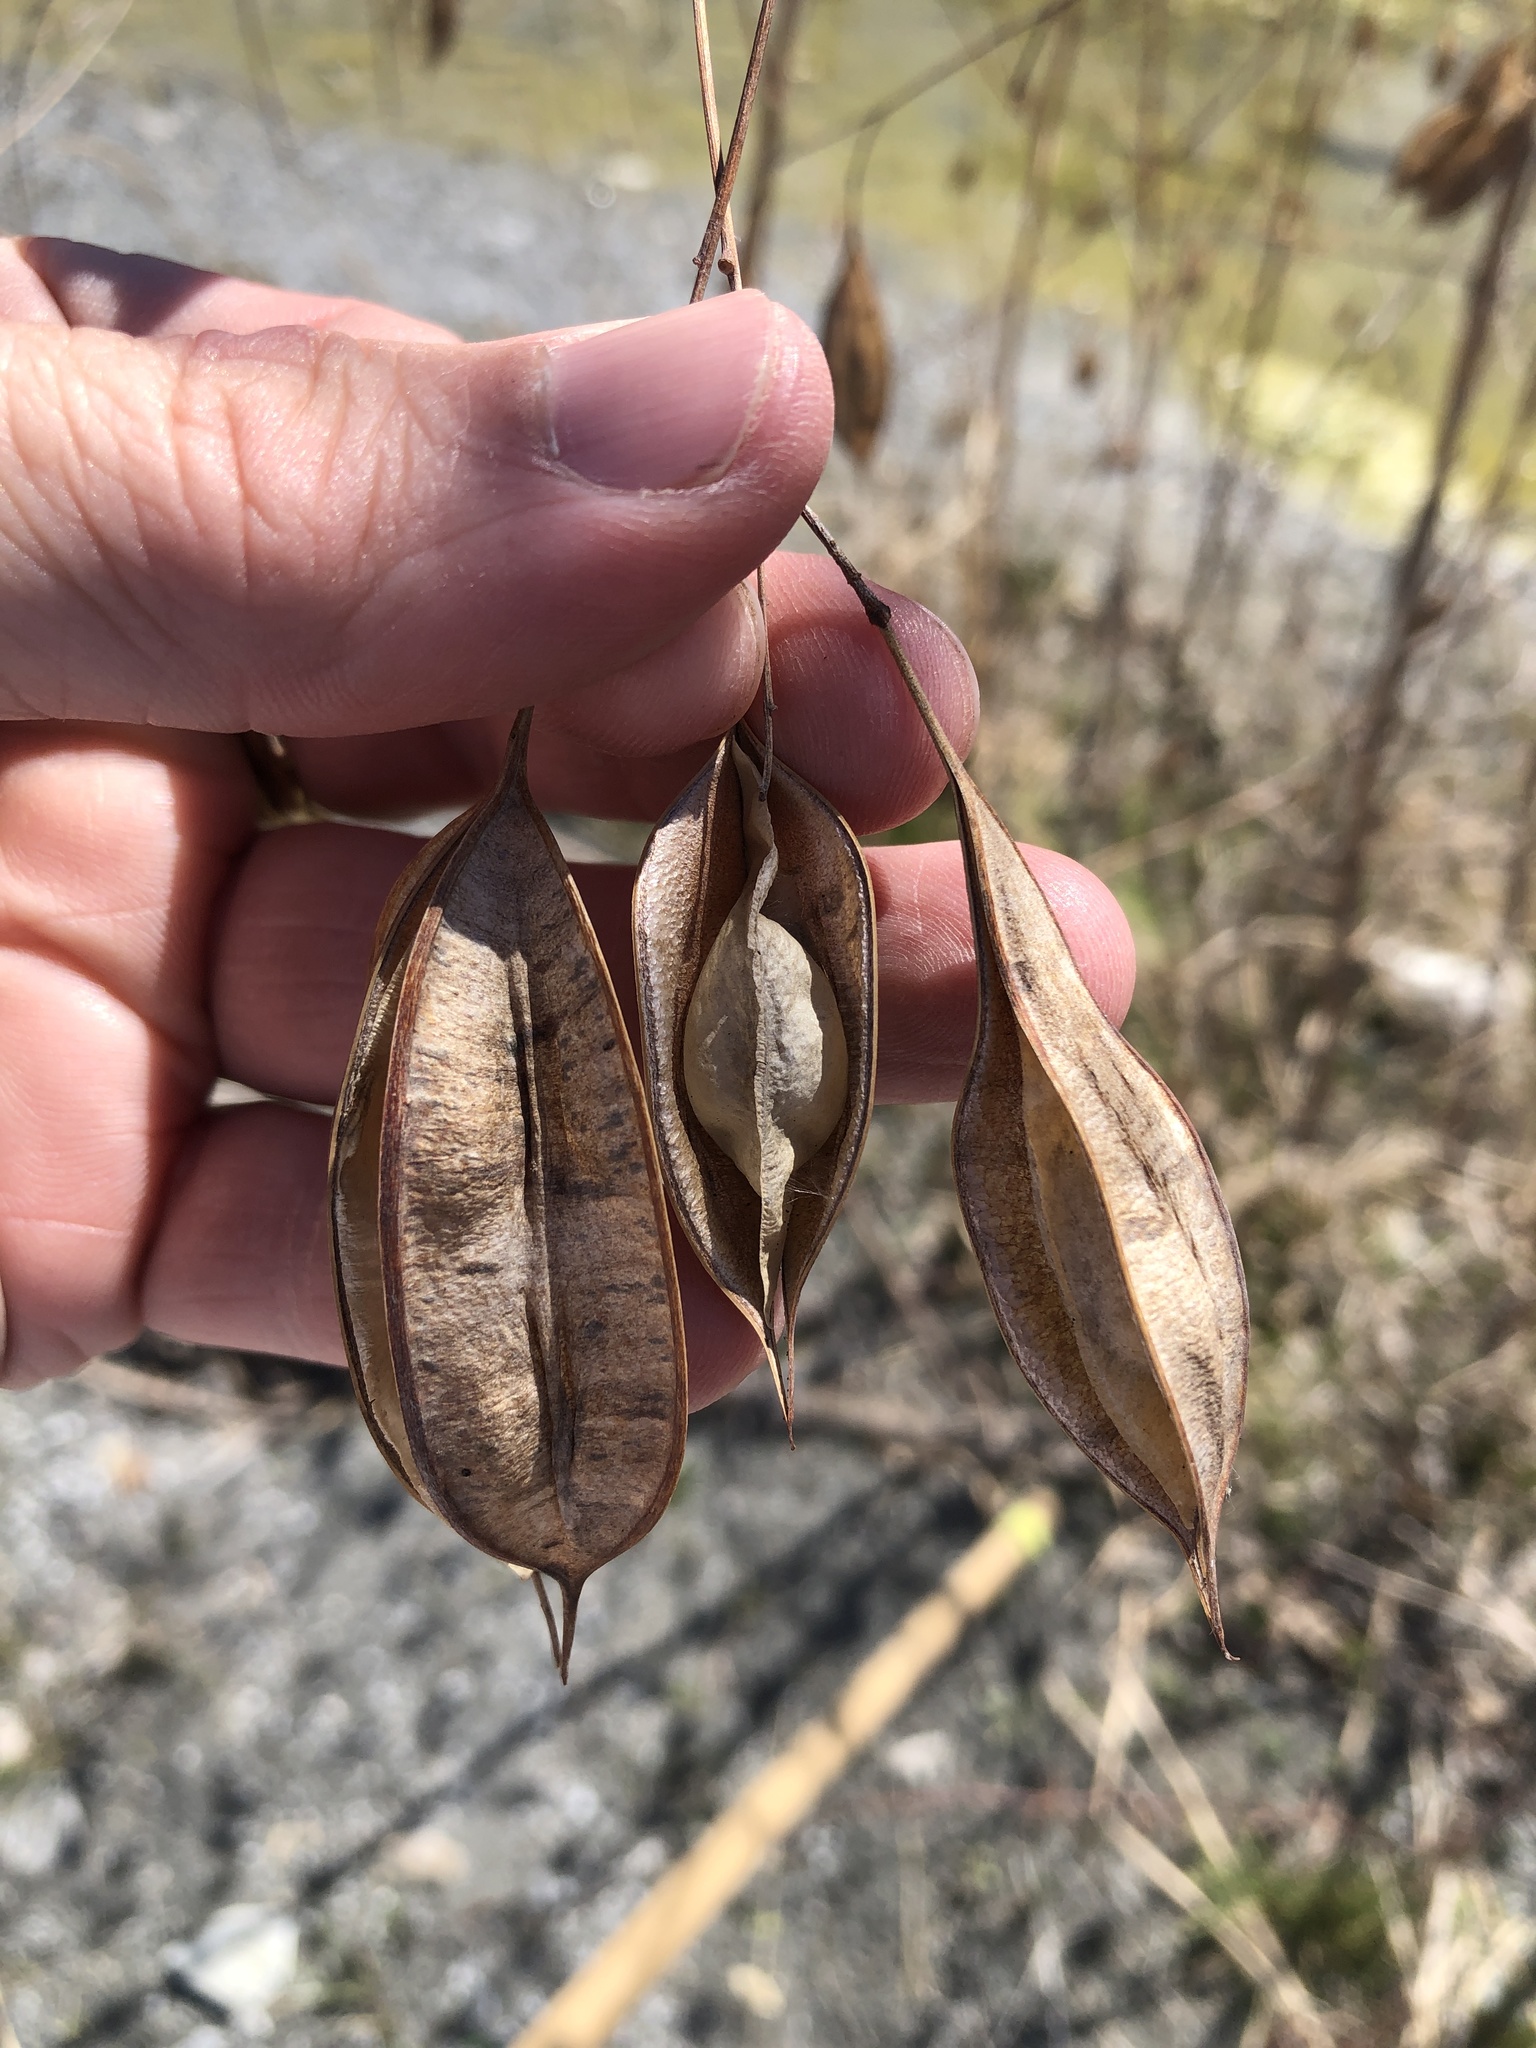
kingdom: Plantae
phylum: Tracheophyta
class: Magnoliopsida
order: Fabales
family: Fabaceae
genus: Sesbania
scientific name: Sesbania vesicaria
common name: Bagpod
